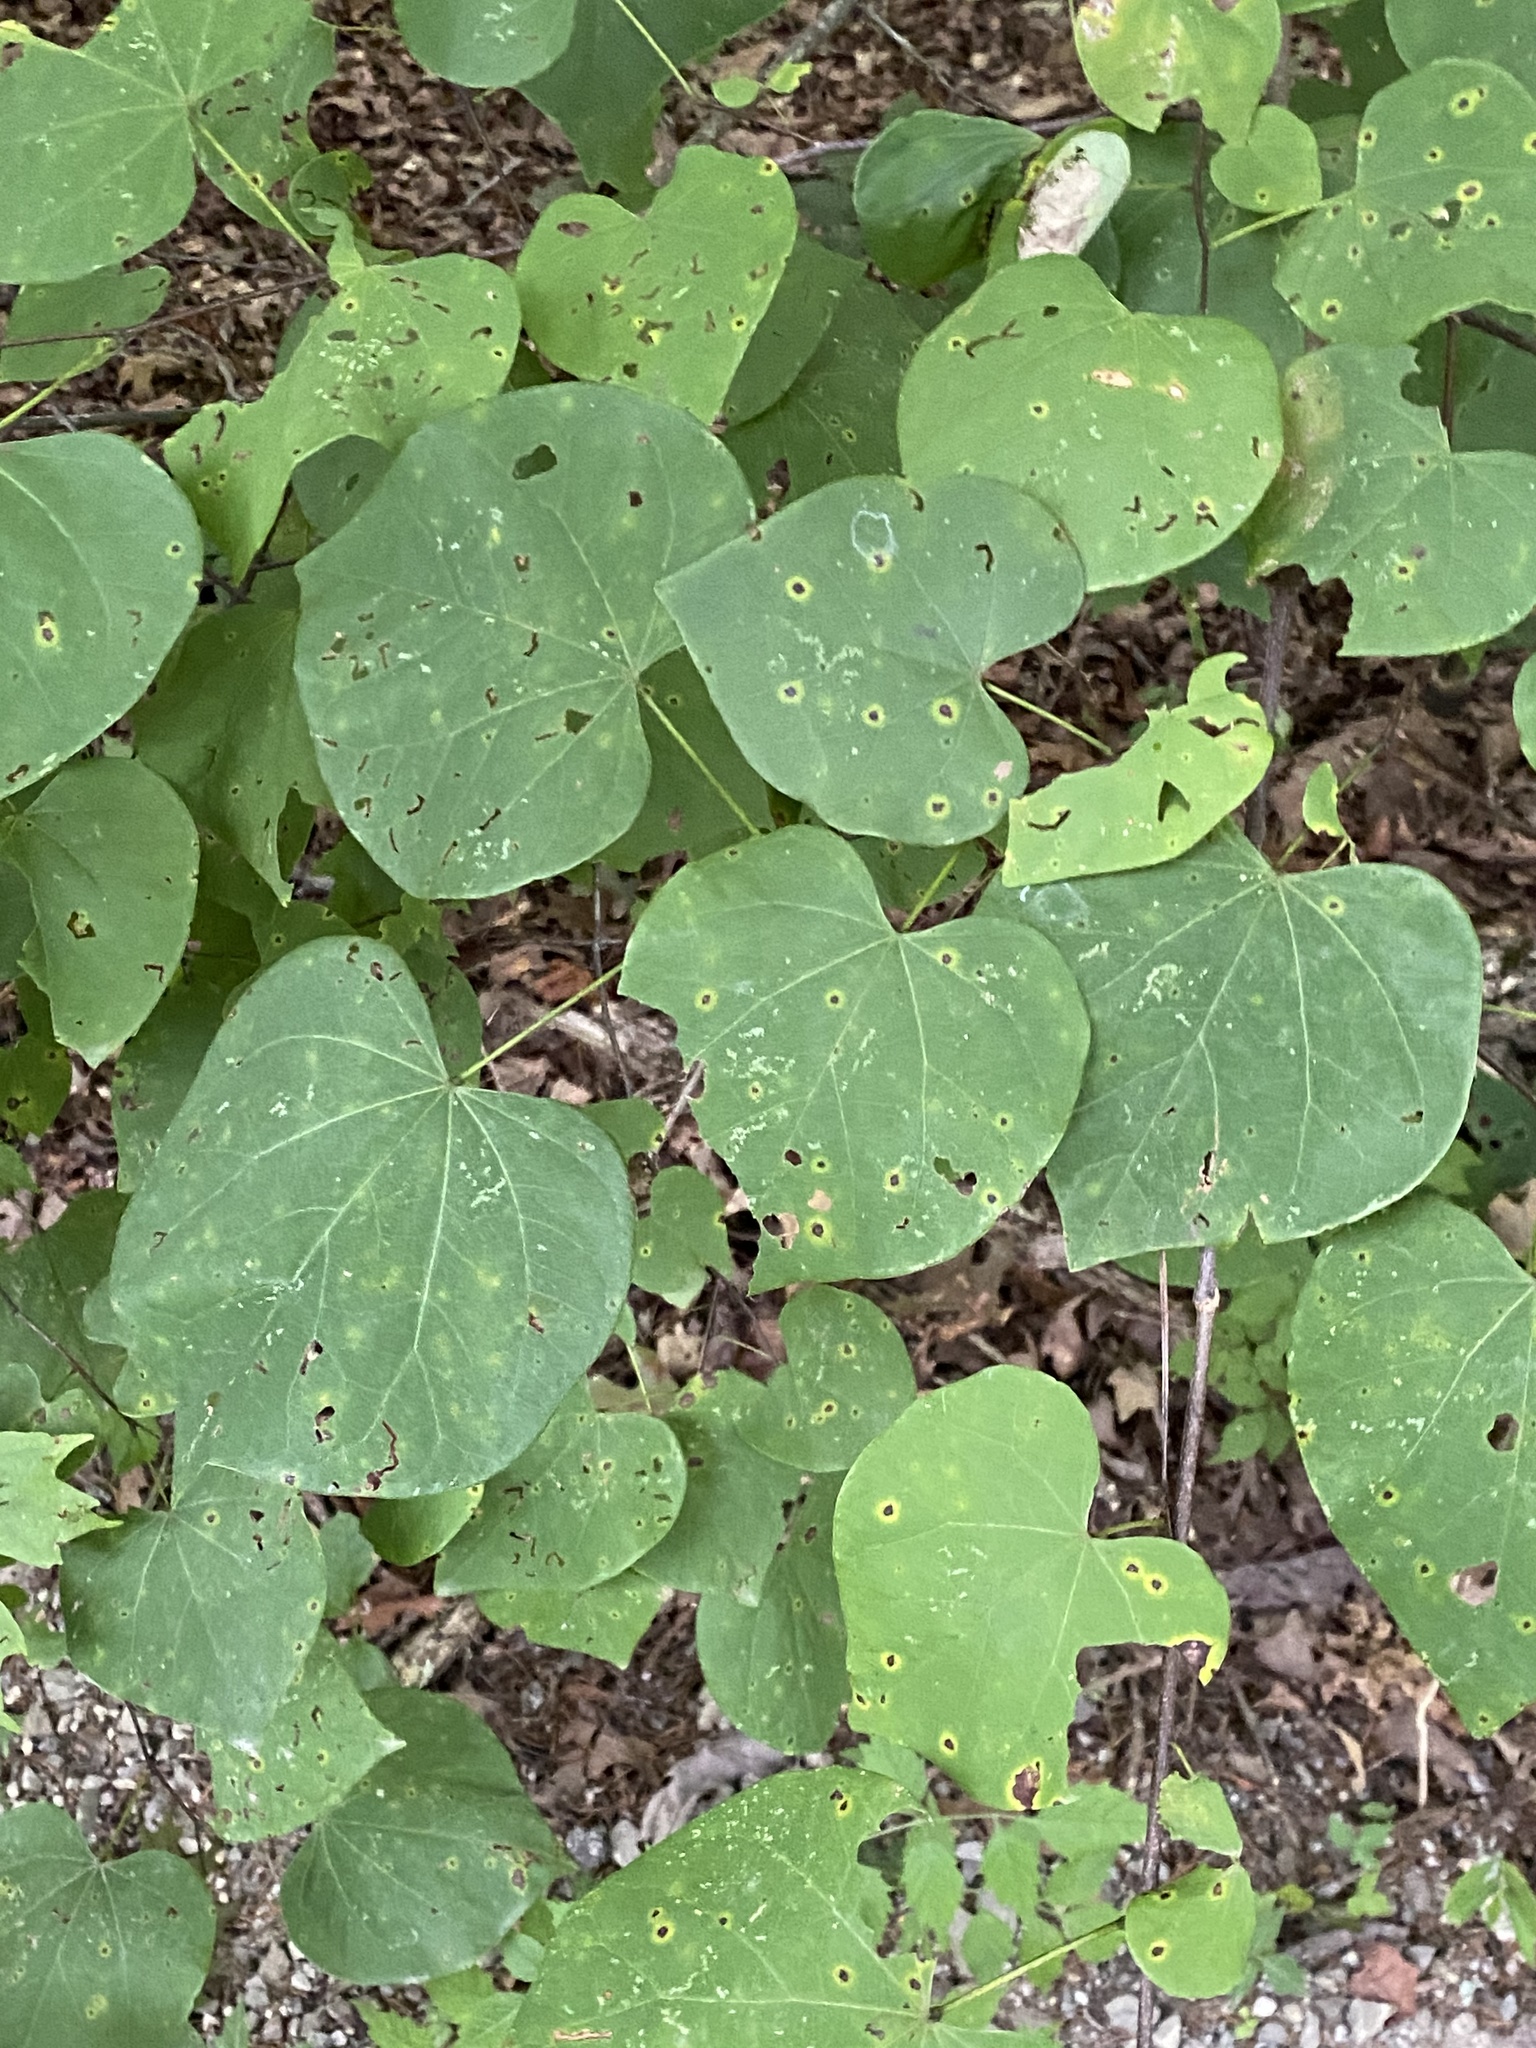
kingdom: Plantae
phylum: Tracheophyta
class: Magnoliopsida
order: Fabales
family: Fabaceae
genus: Cercis
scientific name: Cercis canadensis
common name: Eastern redbud
